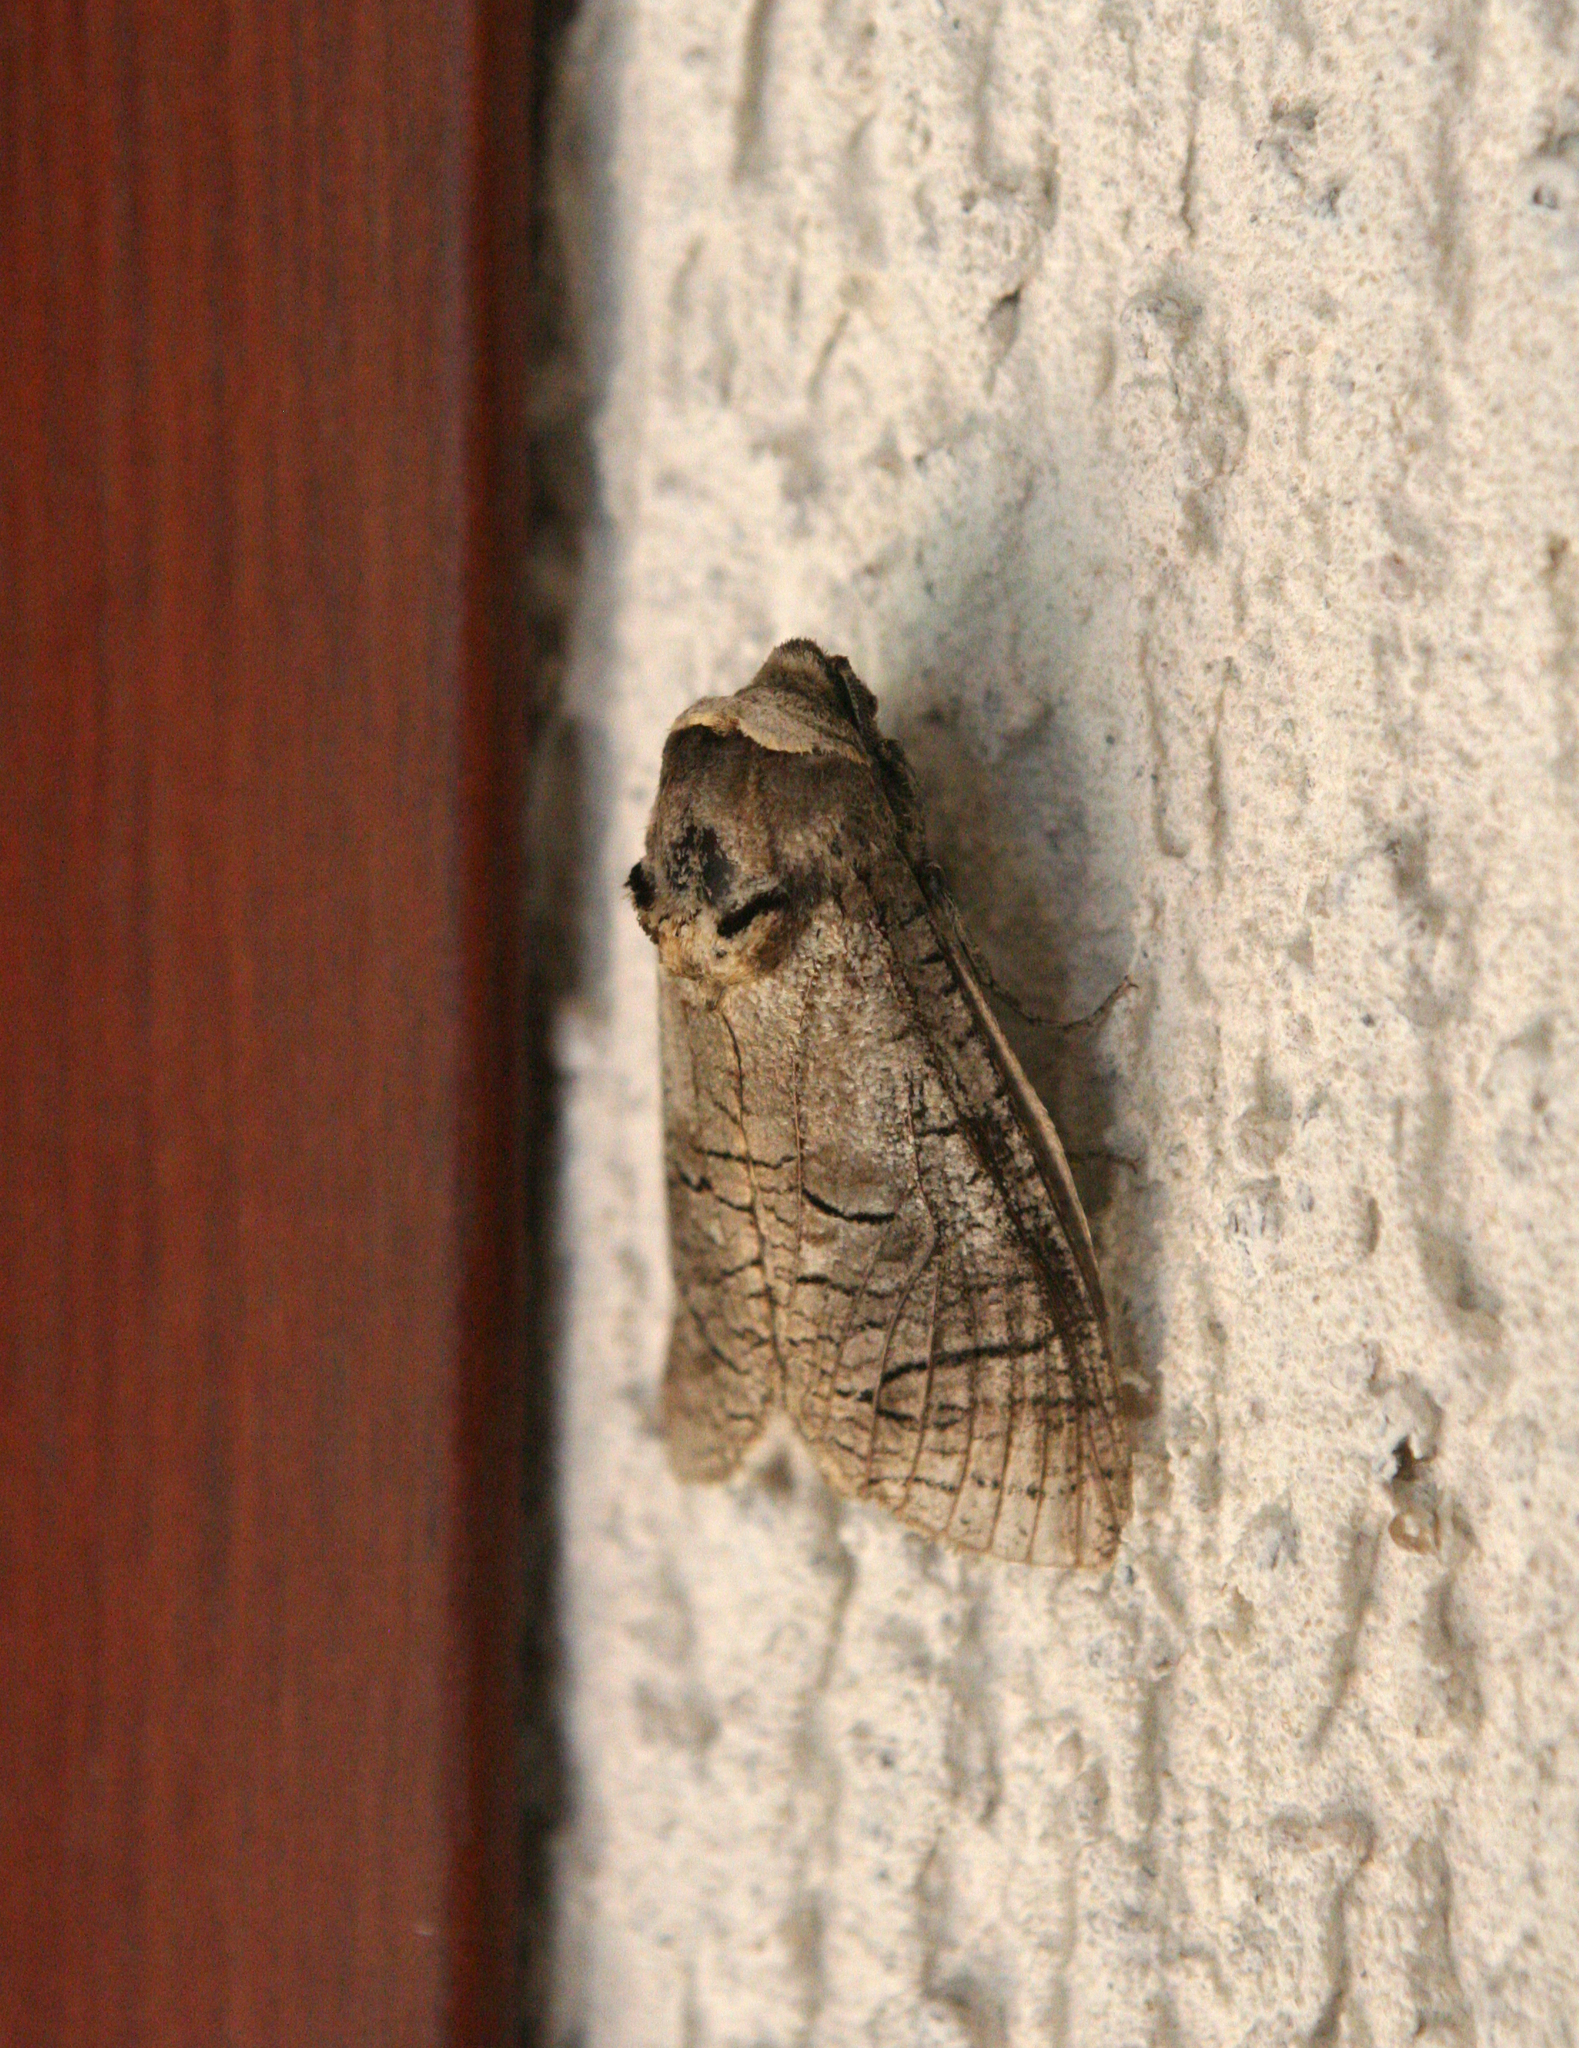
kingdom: Animalia
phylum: Arthropoda
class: Insecta
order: Lepidoptera
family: Cossidae
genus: Cossus
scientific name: Cossus cossus
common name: Goat moth
